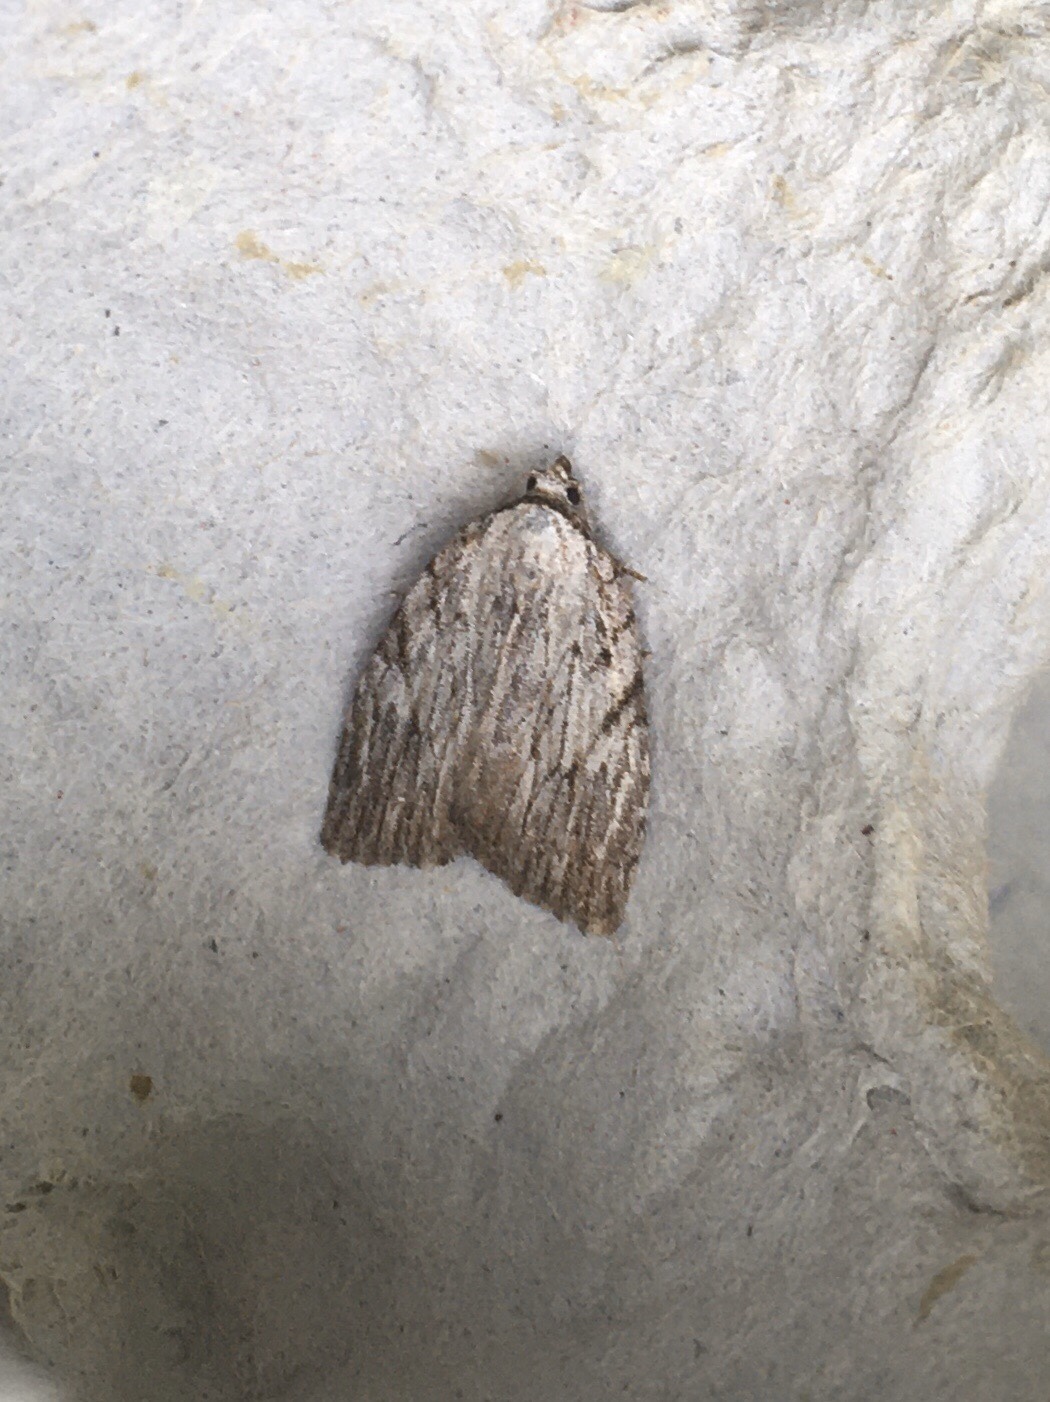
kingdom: Animalia
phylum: Arthropoda
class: Insecta
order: Lepidoptera
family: Noctuidae
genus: Balsa
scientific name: Balsa tristrigella
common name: Three-lined balsa moth
